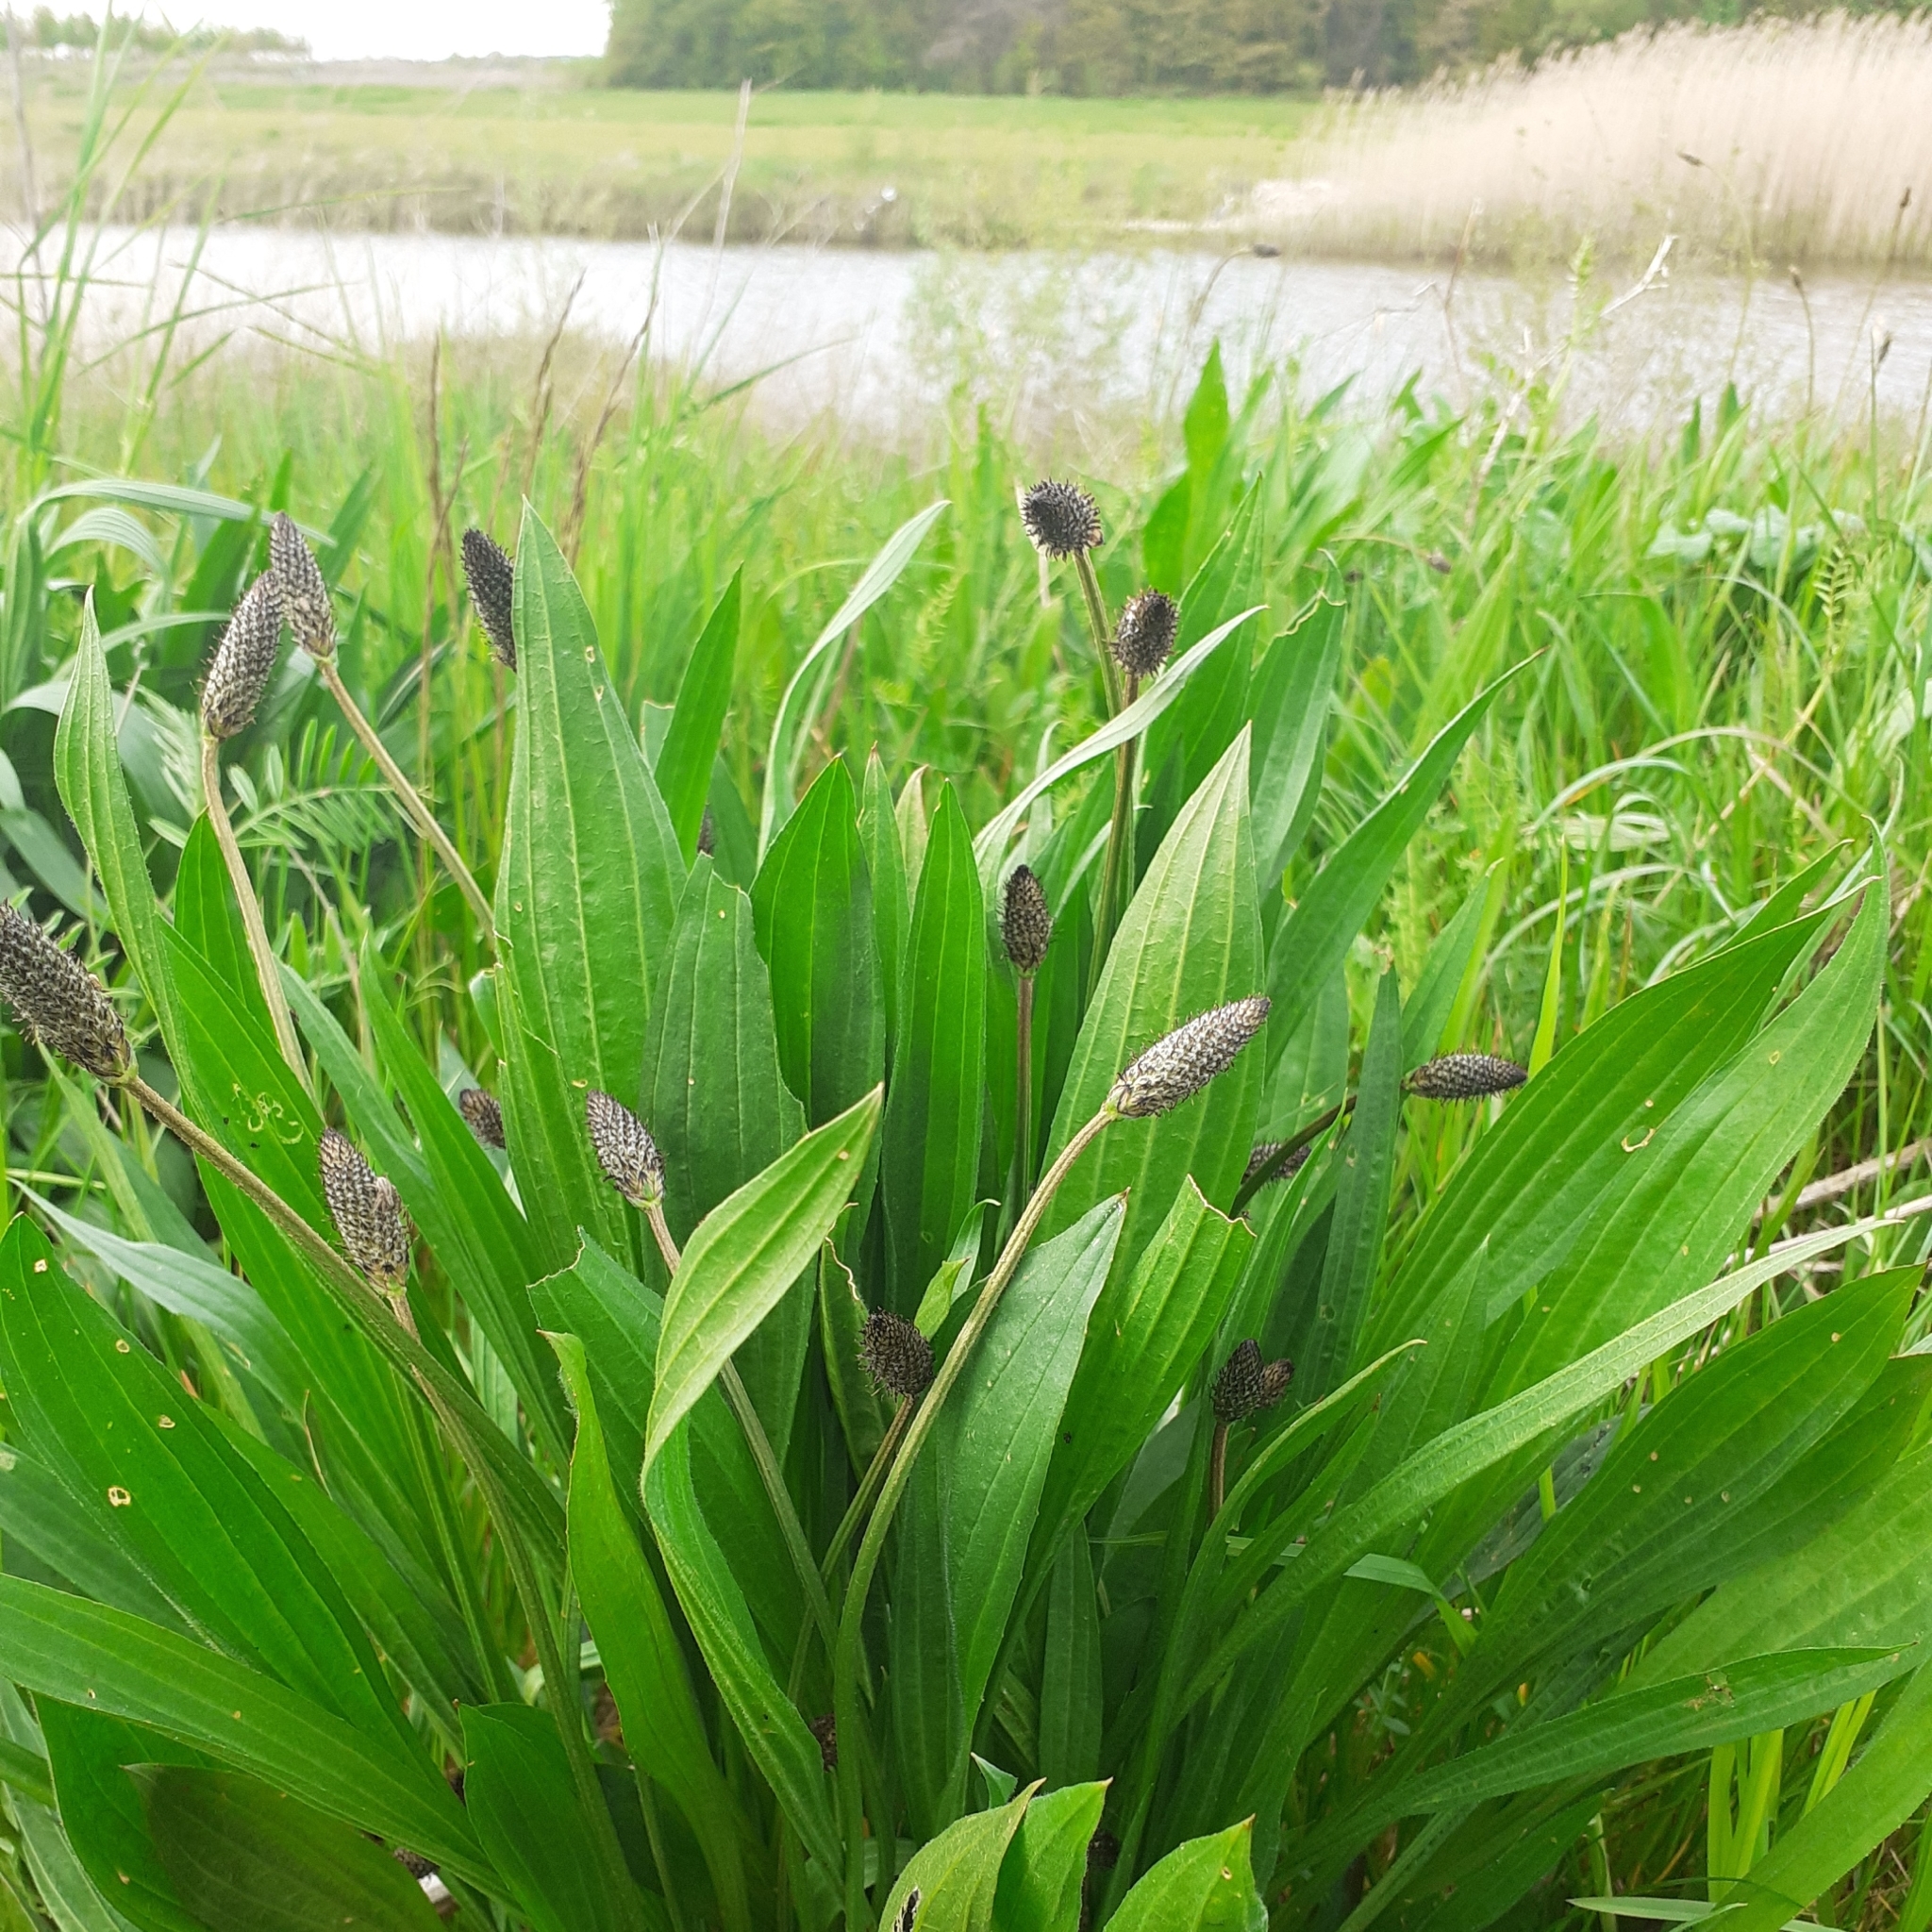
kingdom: Plantae
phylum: Tracheophyta
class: Magnoliopsida
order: Lamiales
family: Plantaginaceae
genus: Plantago
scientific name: Plantago lanceolata
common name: Ribwort plantain
